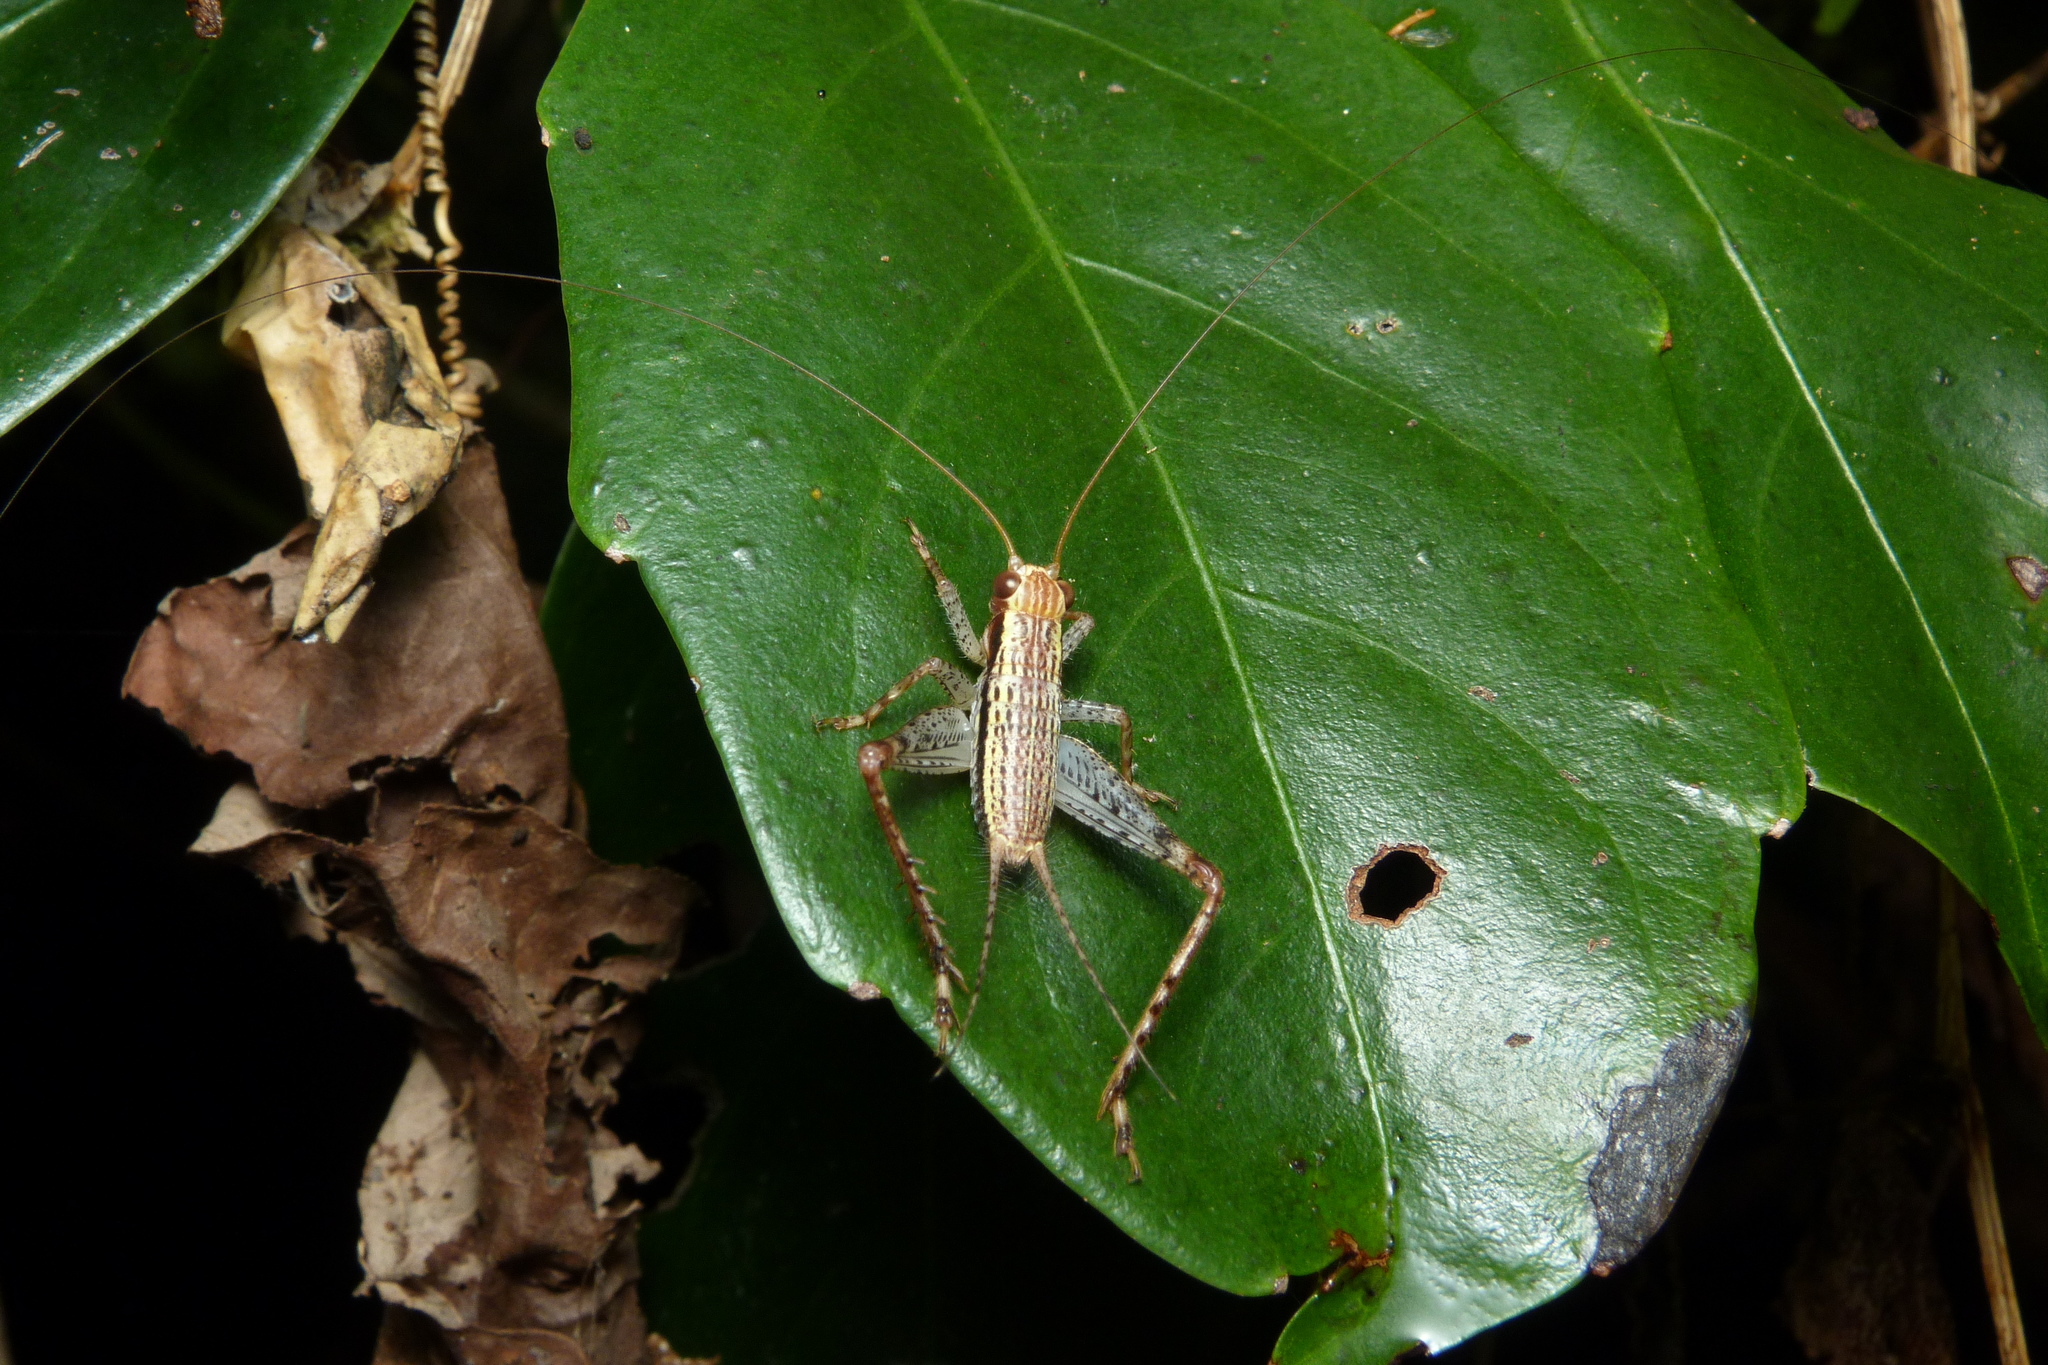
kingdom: Animalia
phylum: Arthropoda
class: Insecta
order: Orthoptera
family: Gryllidae
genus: Cardiodactylus
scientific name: Cardiodactylus novaeguineae
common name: Sad cricket
